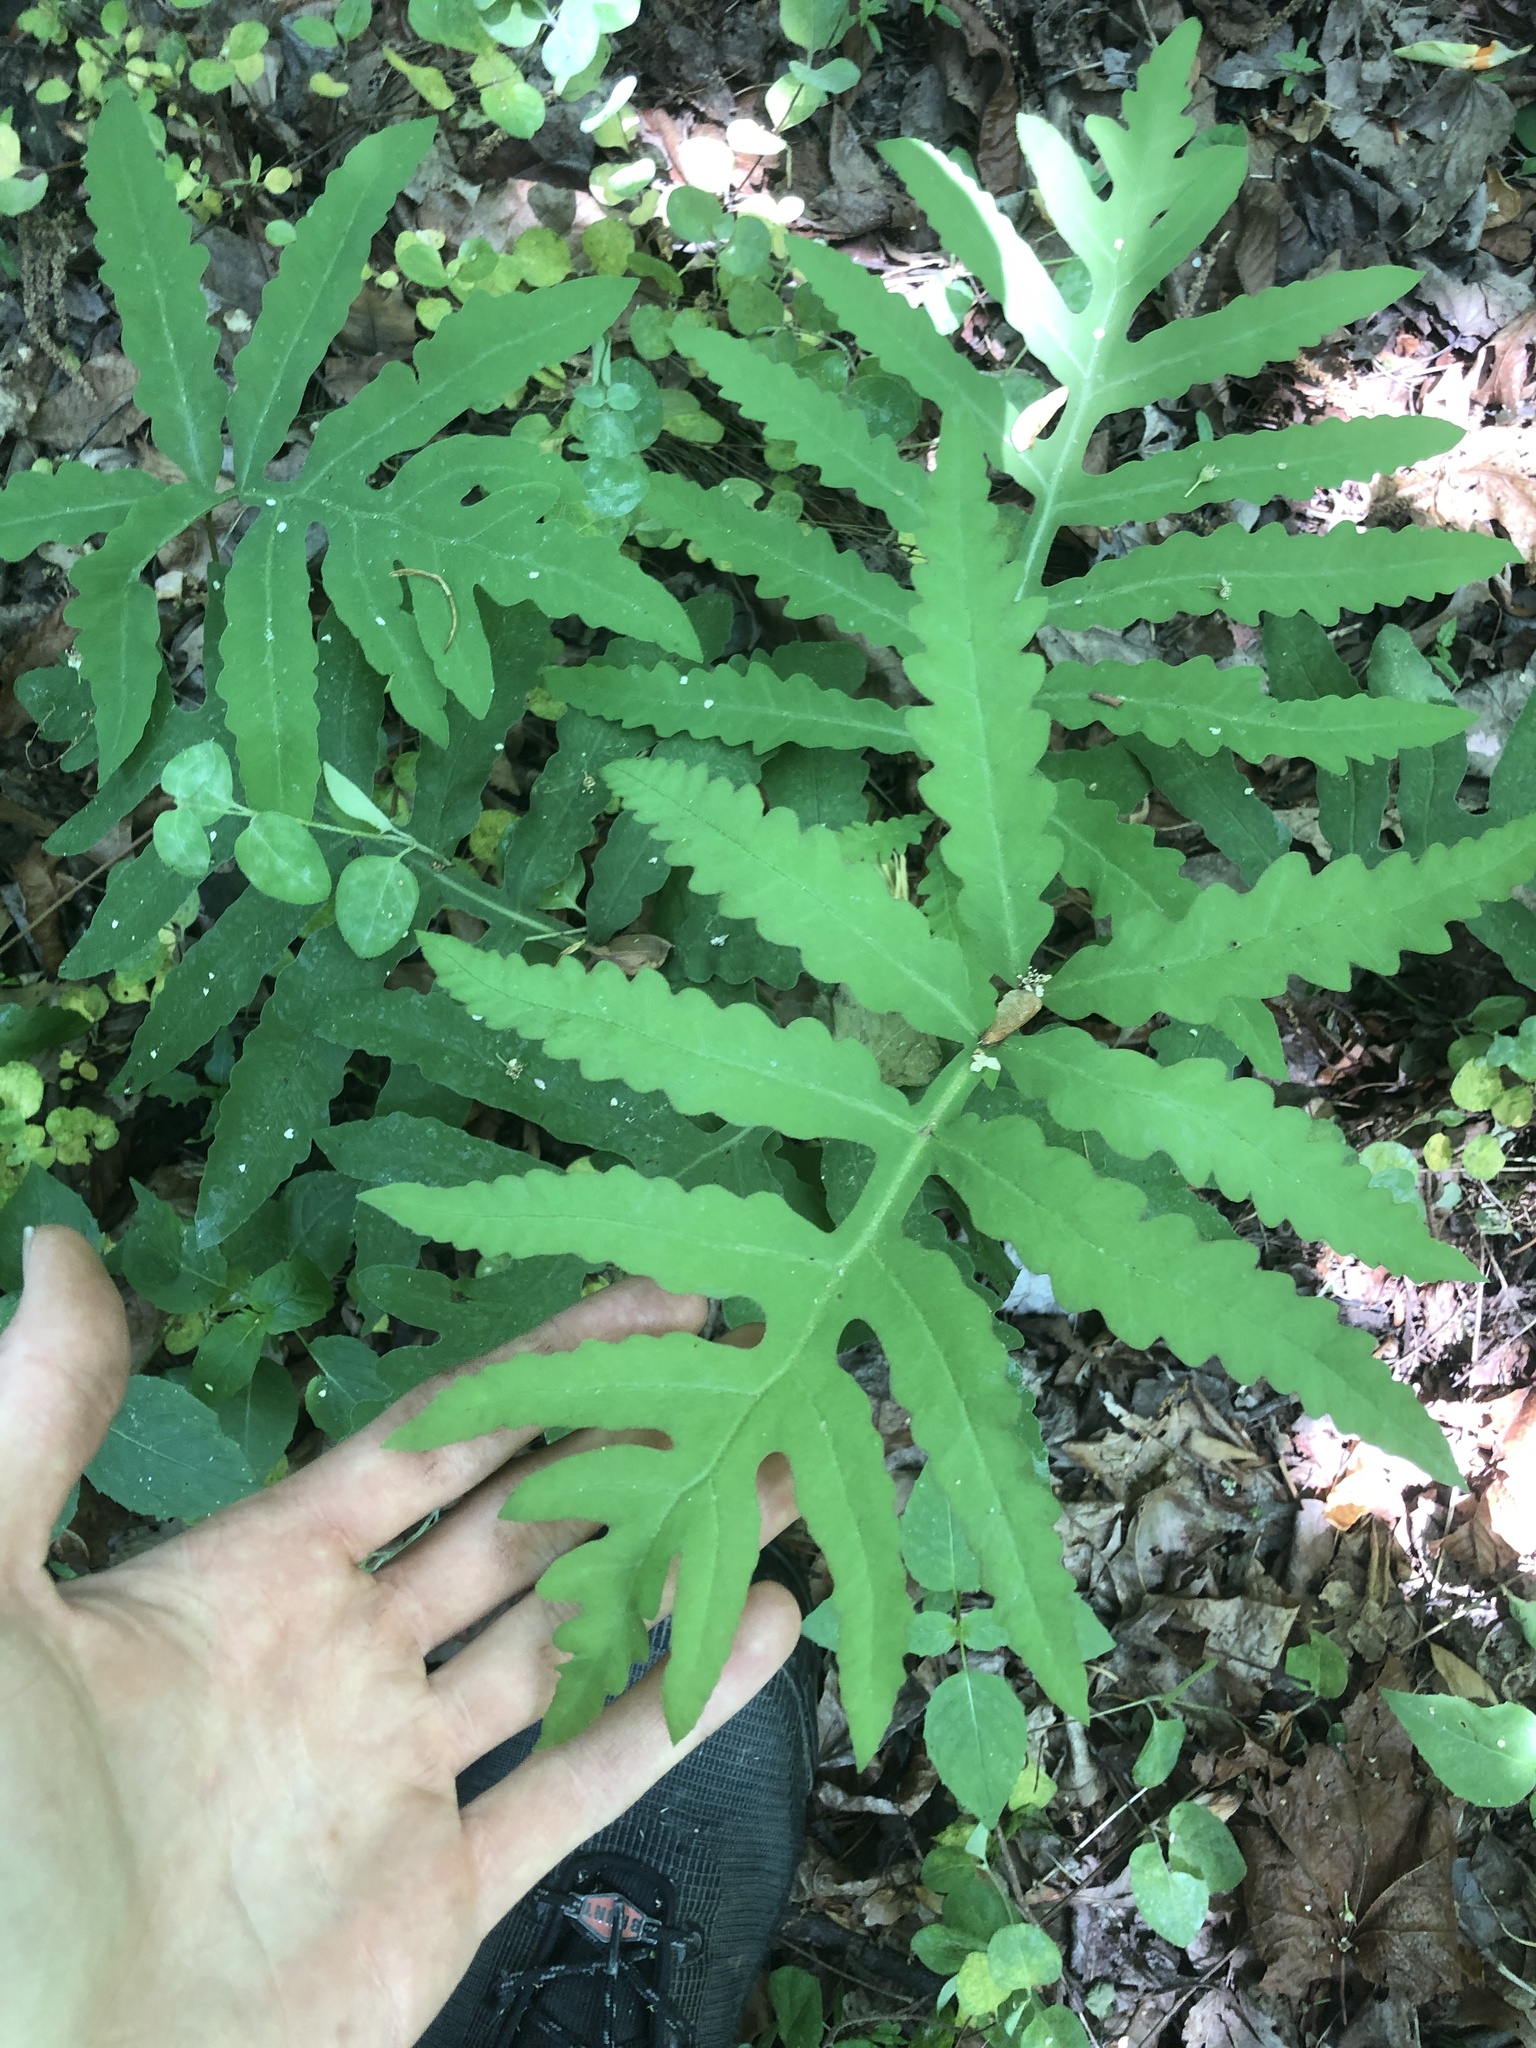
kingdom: Plantae
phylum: Tracheophyta
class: Polypodiopsida
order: Polypodiales
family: Onocleaceae
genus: Onoclea
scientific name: Onoclea sensibilis
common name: Sensitive fern
